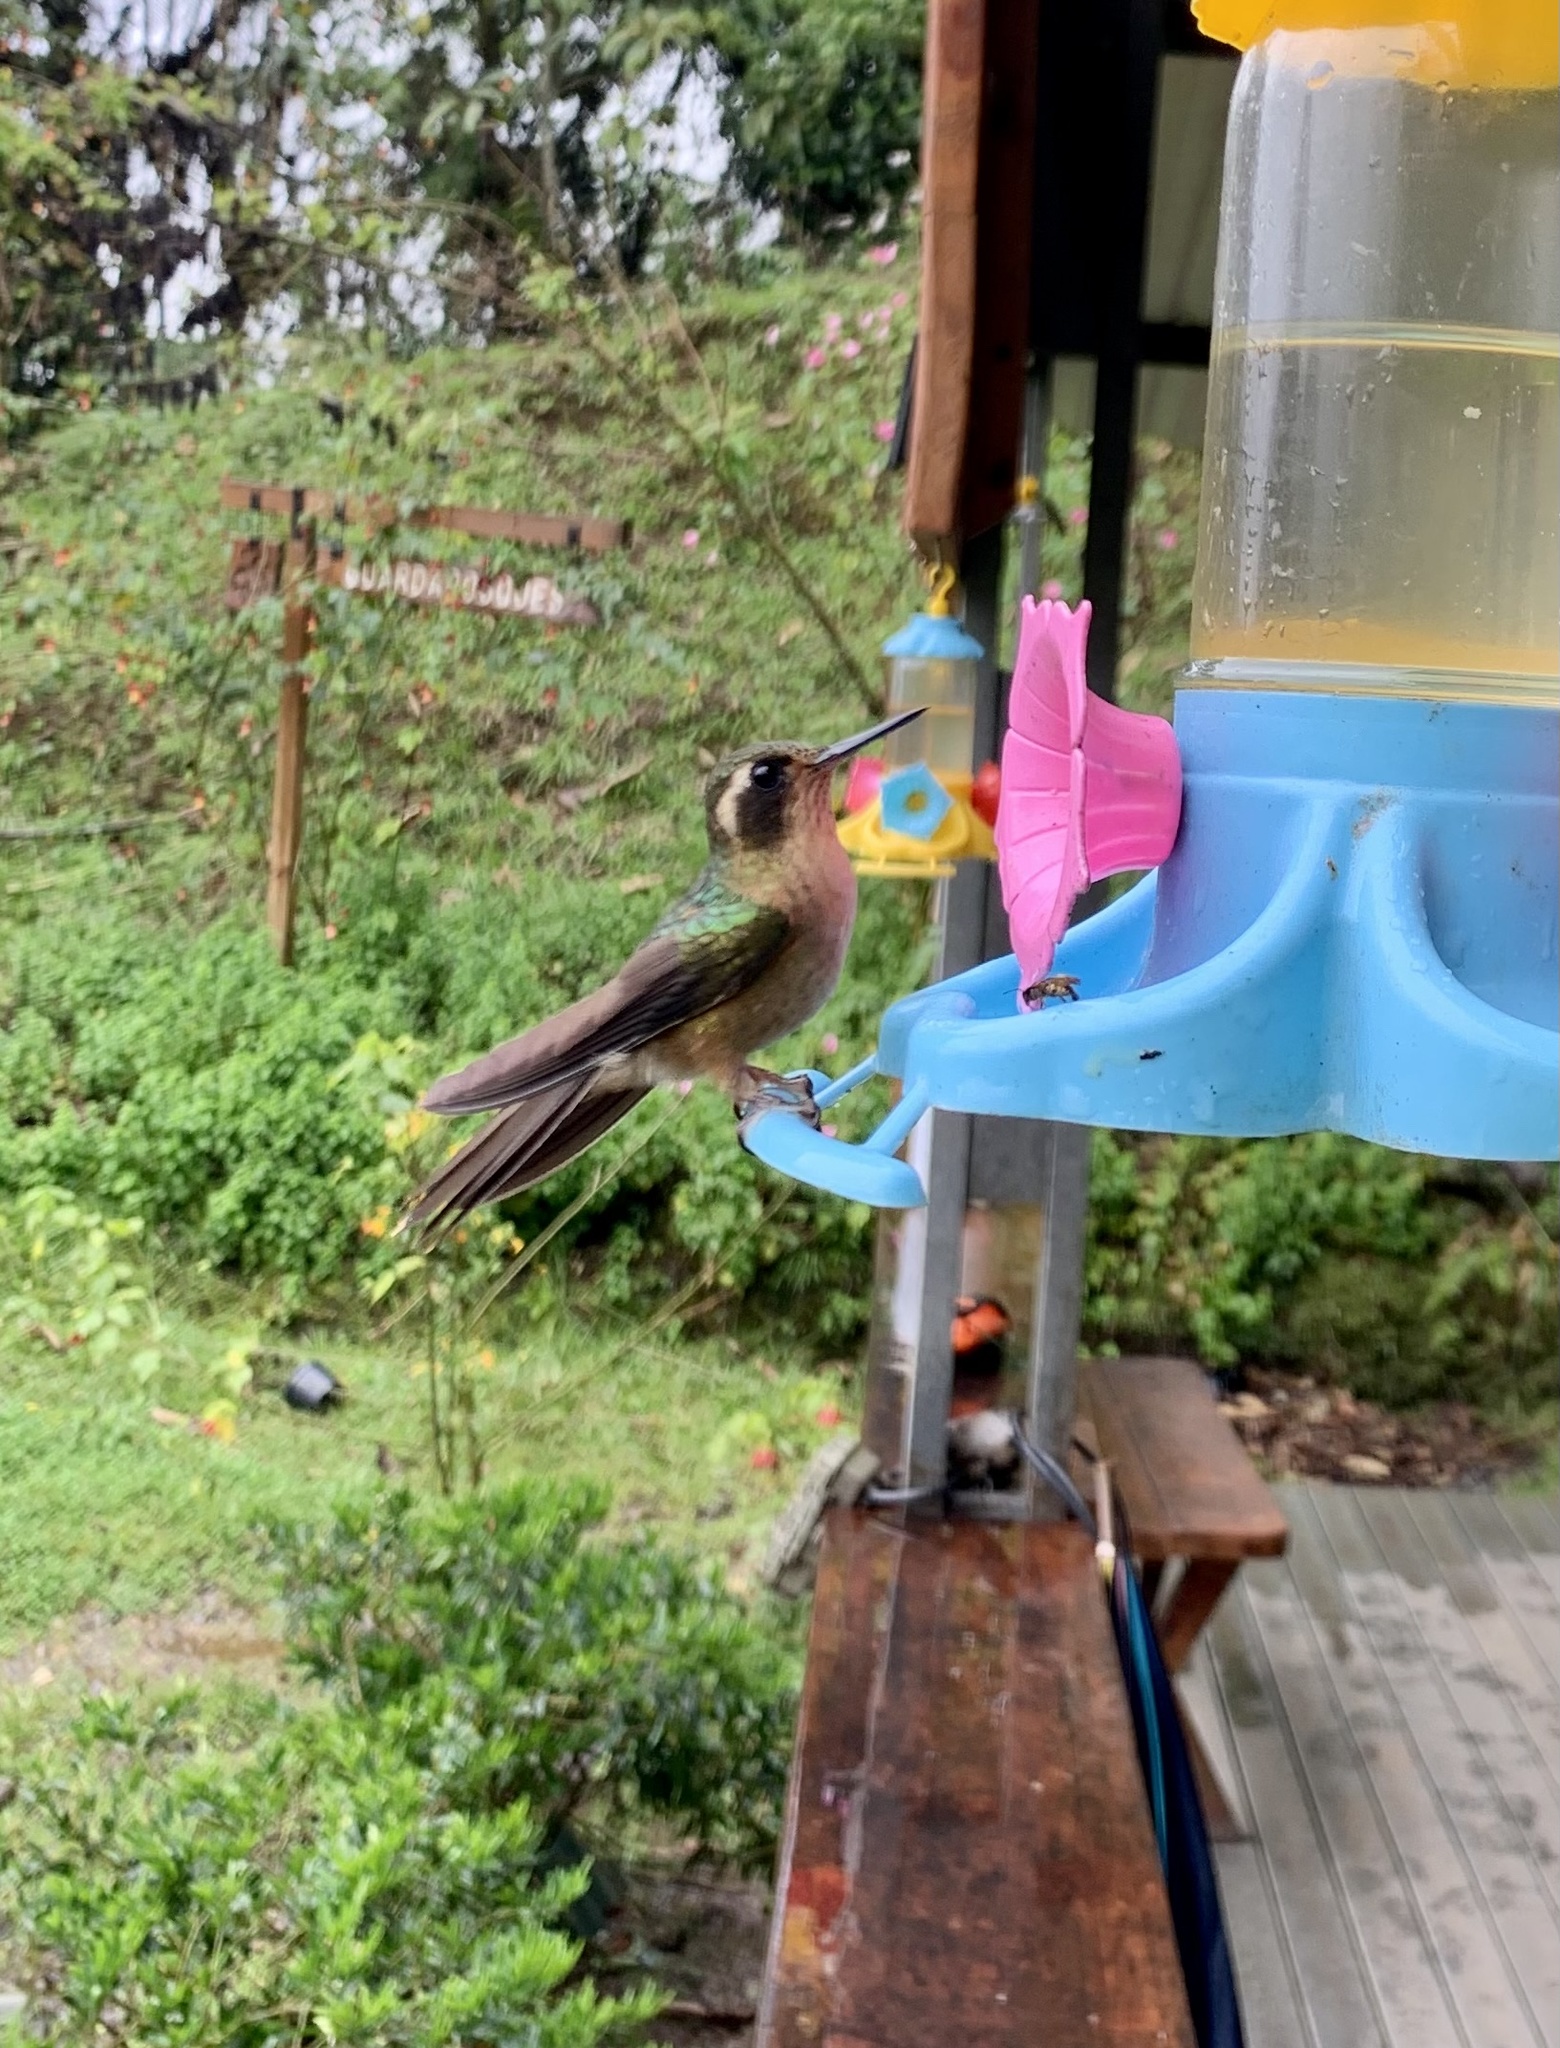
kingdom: Animalia
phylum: Chordata
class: Aves
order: Apodiformes
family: Trochilidae
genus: Adelomyia
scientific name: Adelomyia melanogenys
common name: Speckled hummingbird
